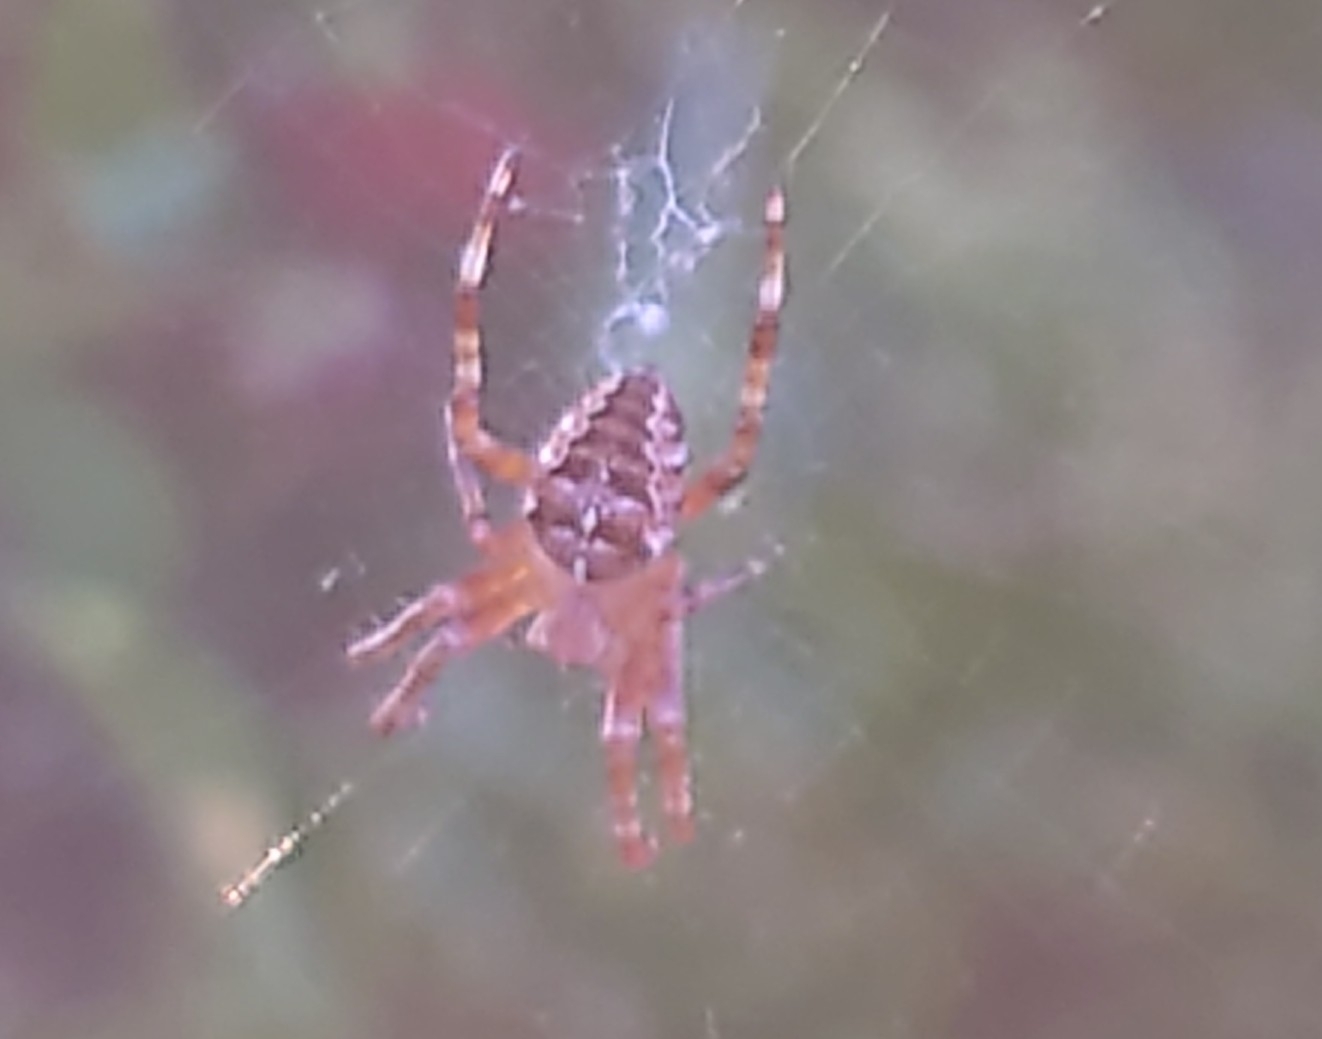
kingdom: Animalia
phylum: Arthropoda
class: Arachnida
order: Araneae
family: Araneidae
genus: Araneus
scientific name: Araneus diadematus
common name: Cross orbweaver
